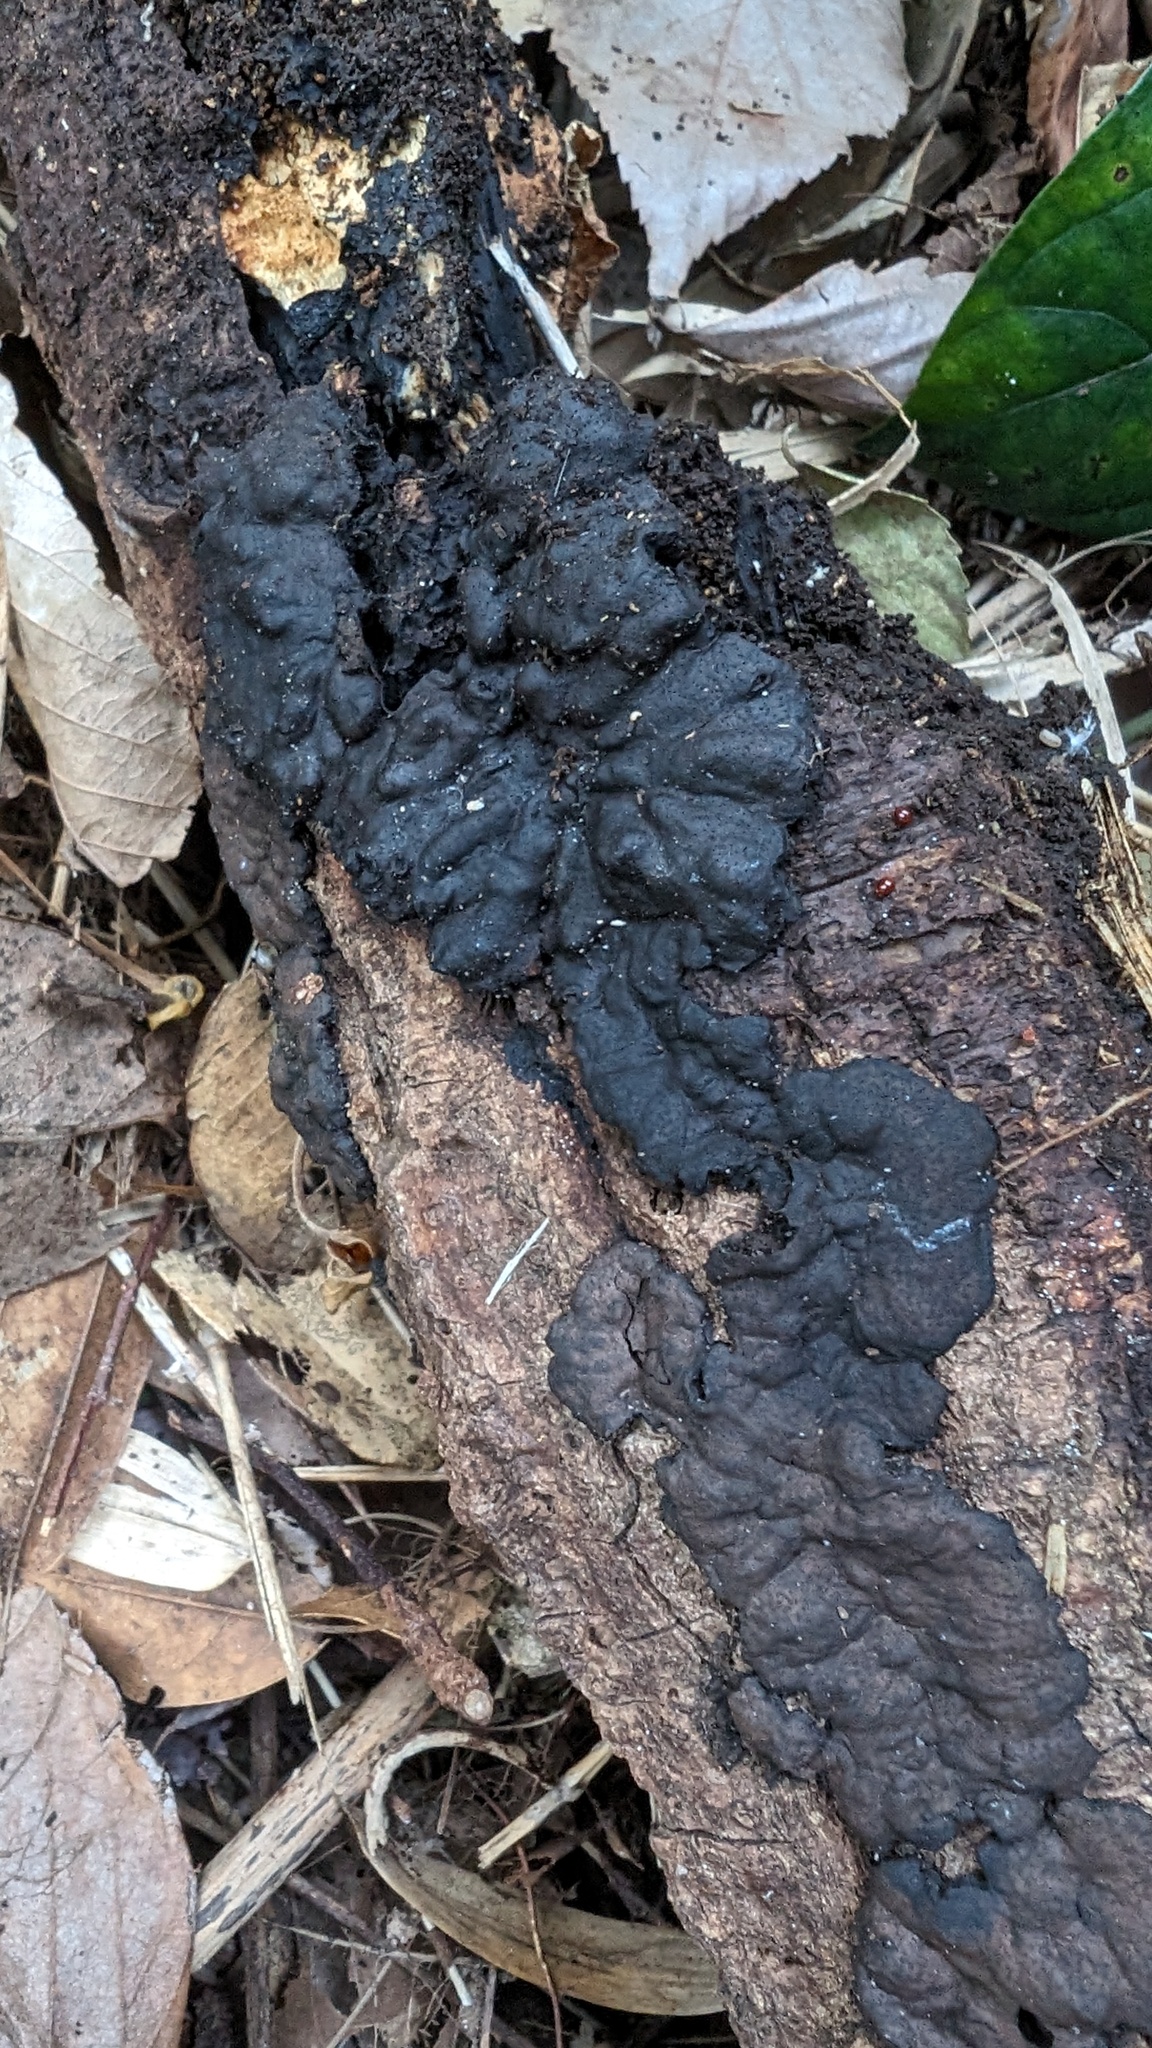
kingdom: Fungi
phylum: Ascomycota
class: Sordariomycetes
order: Xylariales
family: Xylariaceae
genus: Kretzschmaria
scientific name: Kretzschmaria deusta
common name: Brittle cinder
